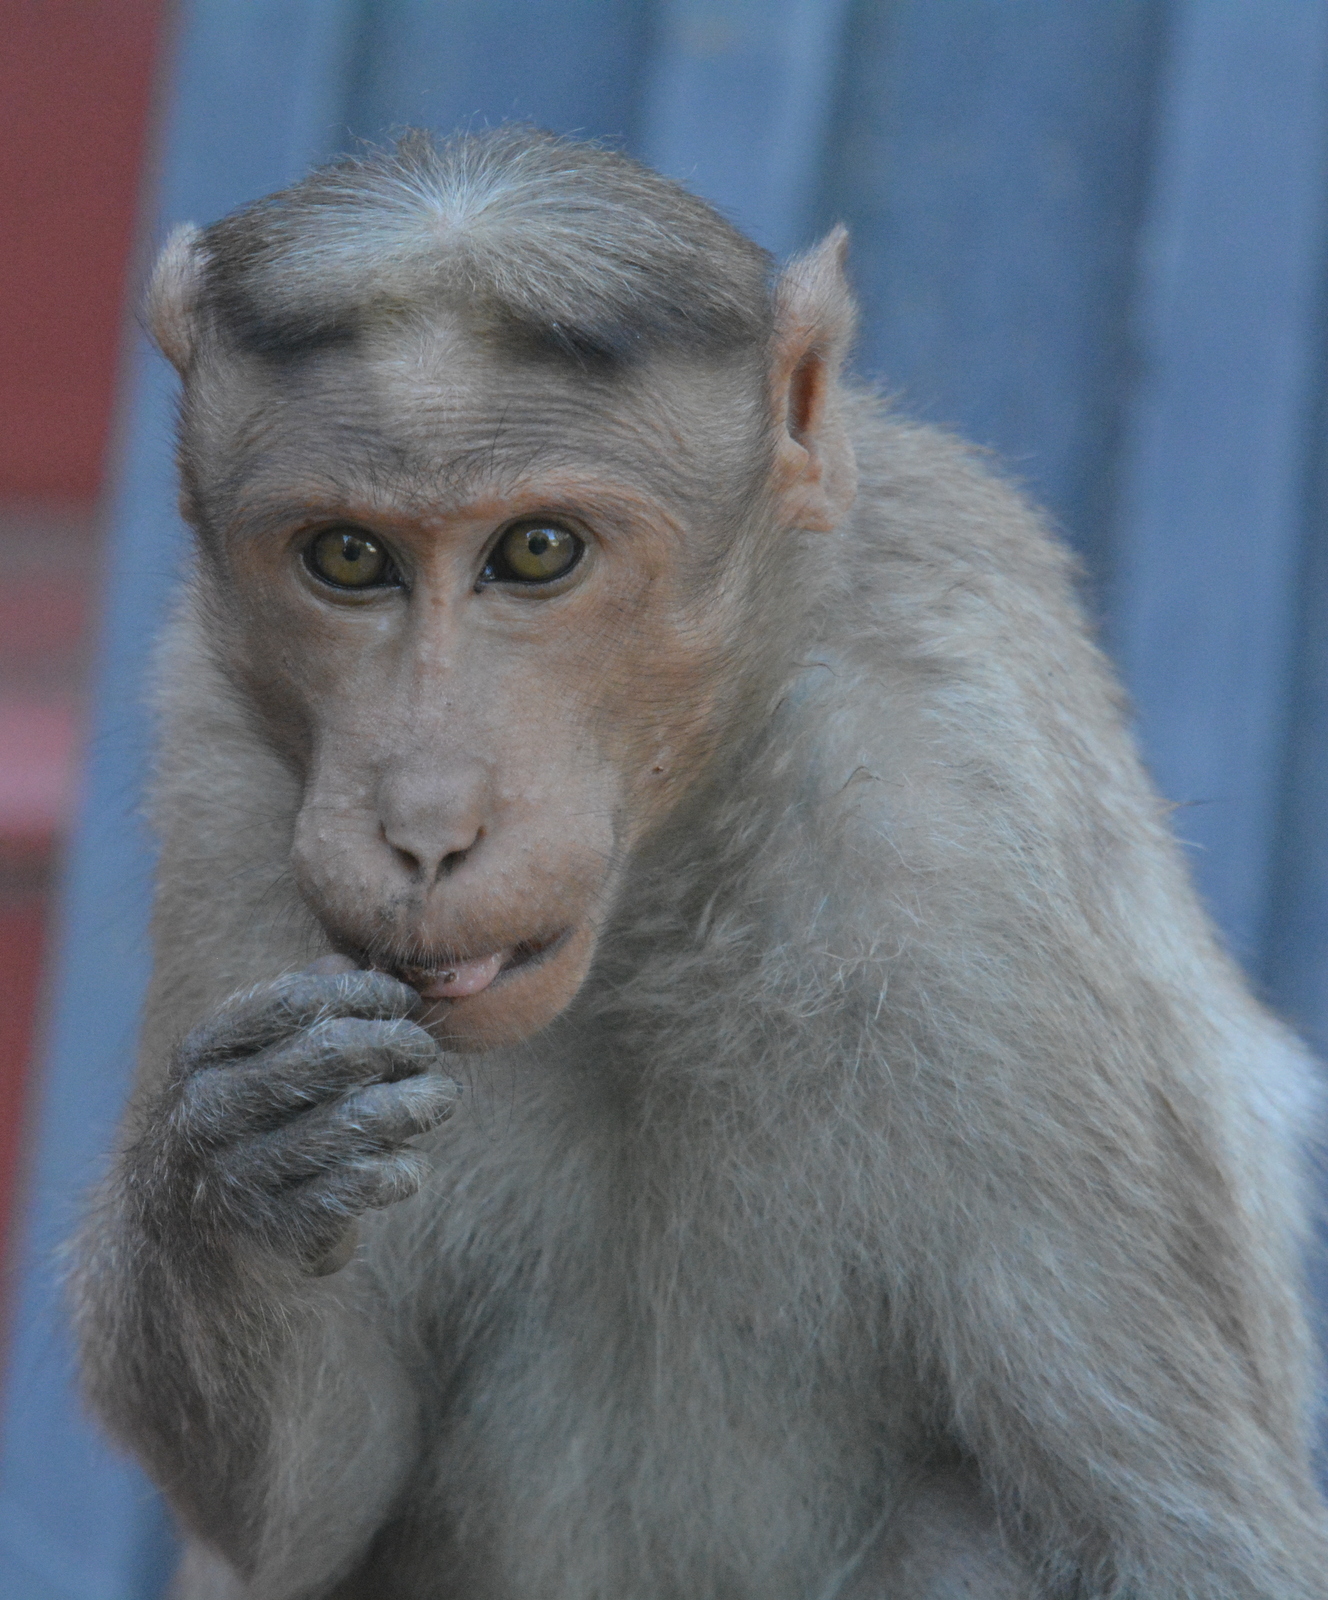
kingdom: Animalia
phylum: Chordata
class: Mammalia
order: Primates
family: Cercopithecidae
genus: Macaca
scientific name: Macaca radiata
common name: Bonnet macaque
